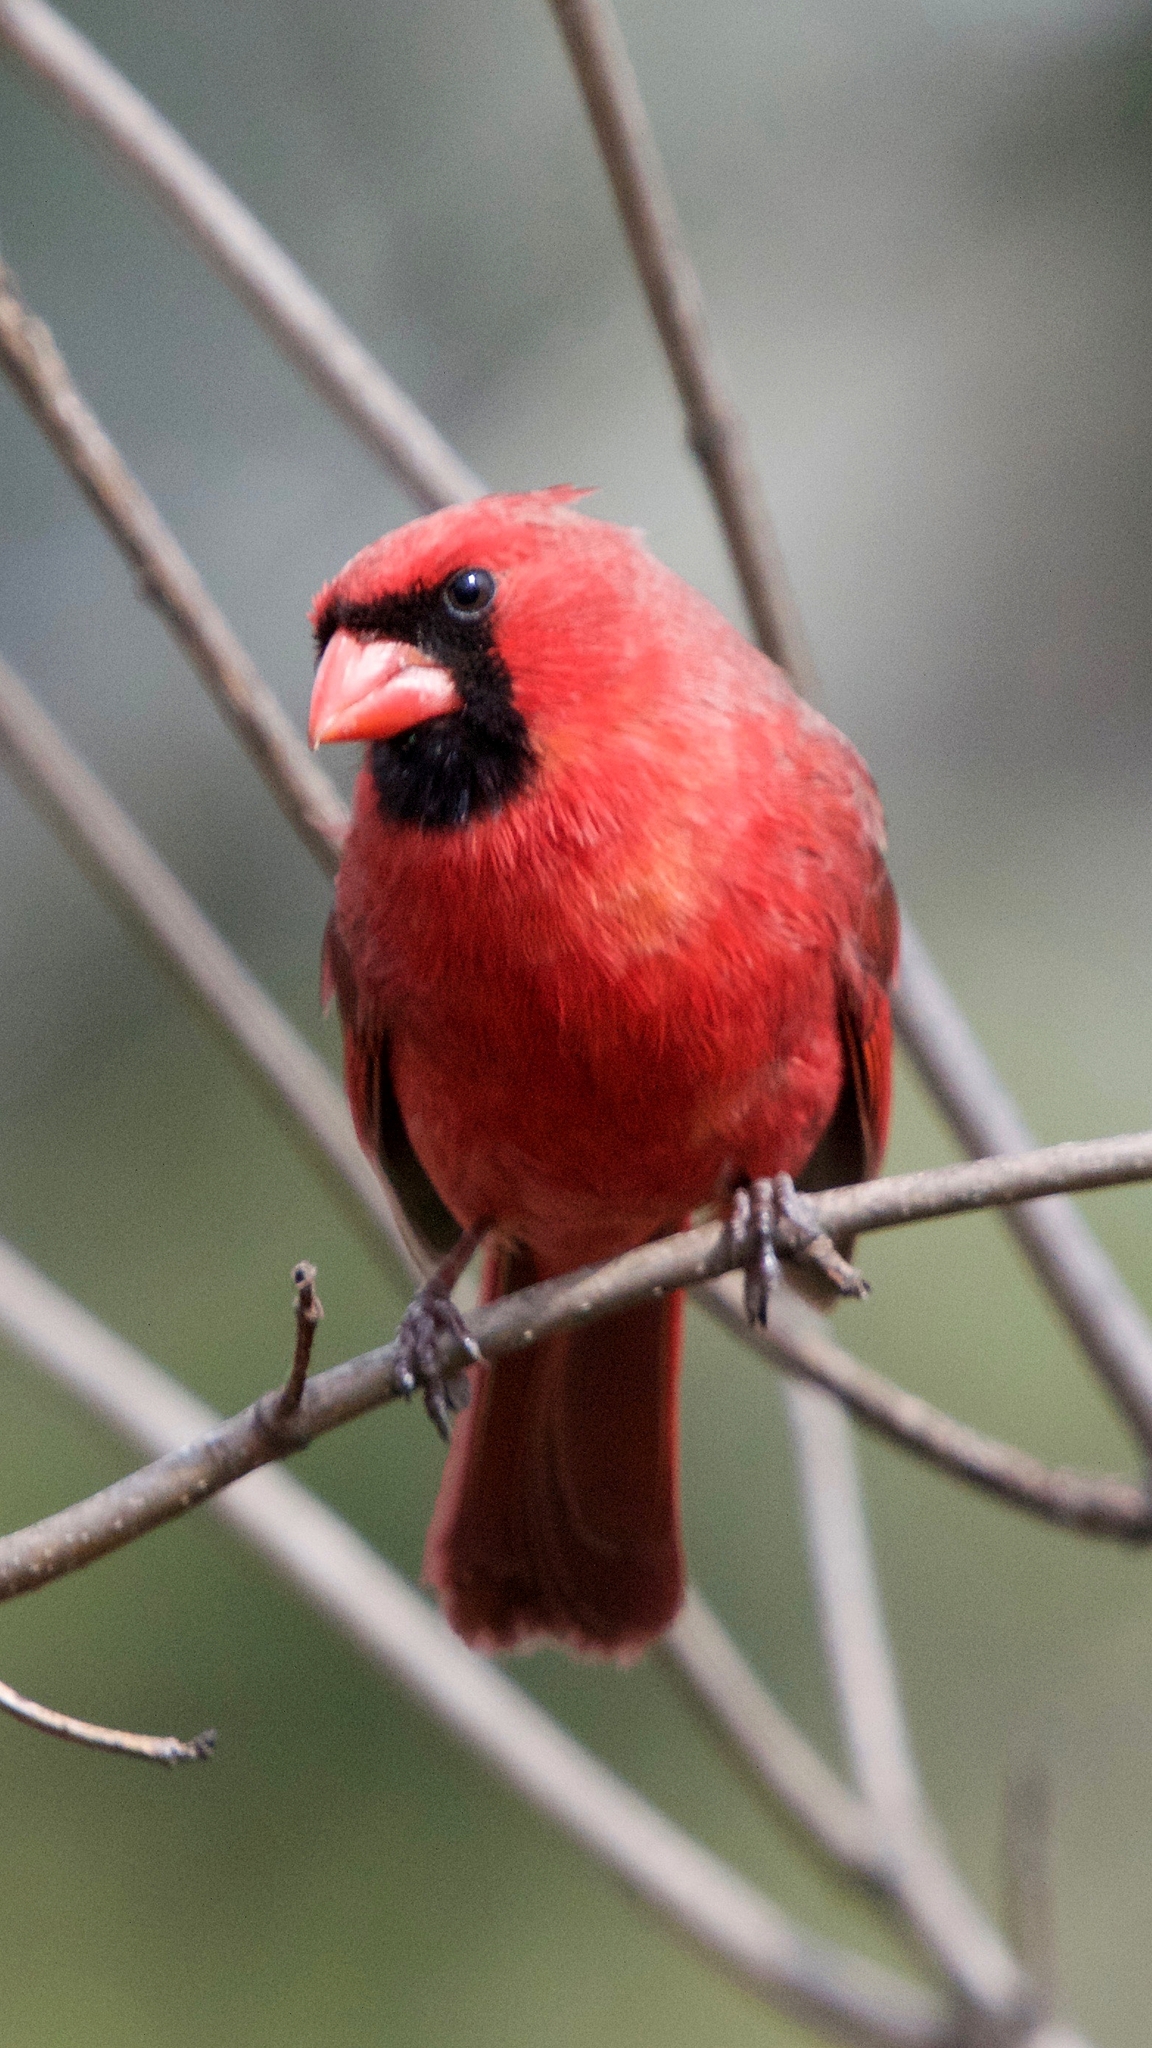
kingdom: Animalia
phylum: Chordata
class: Aves
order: Passeriformes
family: Cardinalidae
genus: Cardinalis
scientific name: Cardinalis cardinalis
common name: Northern cardinal
